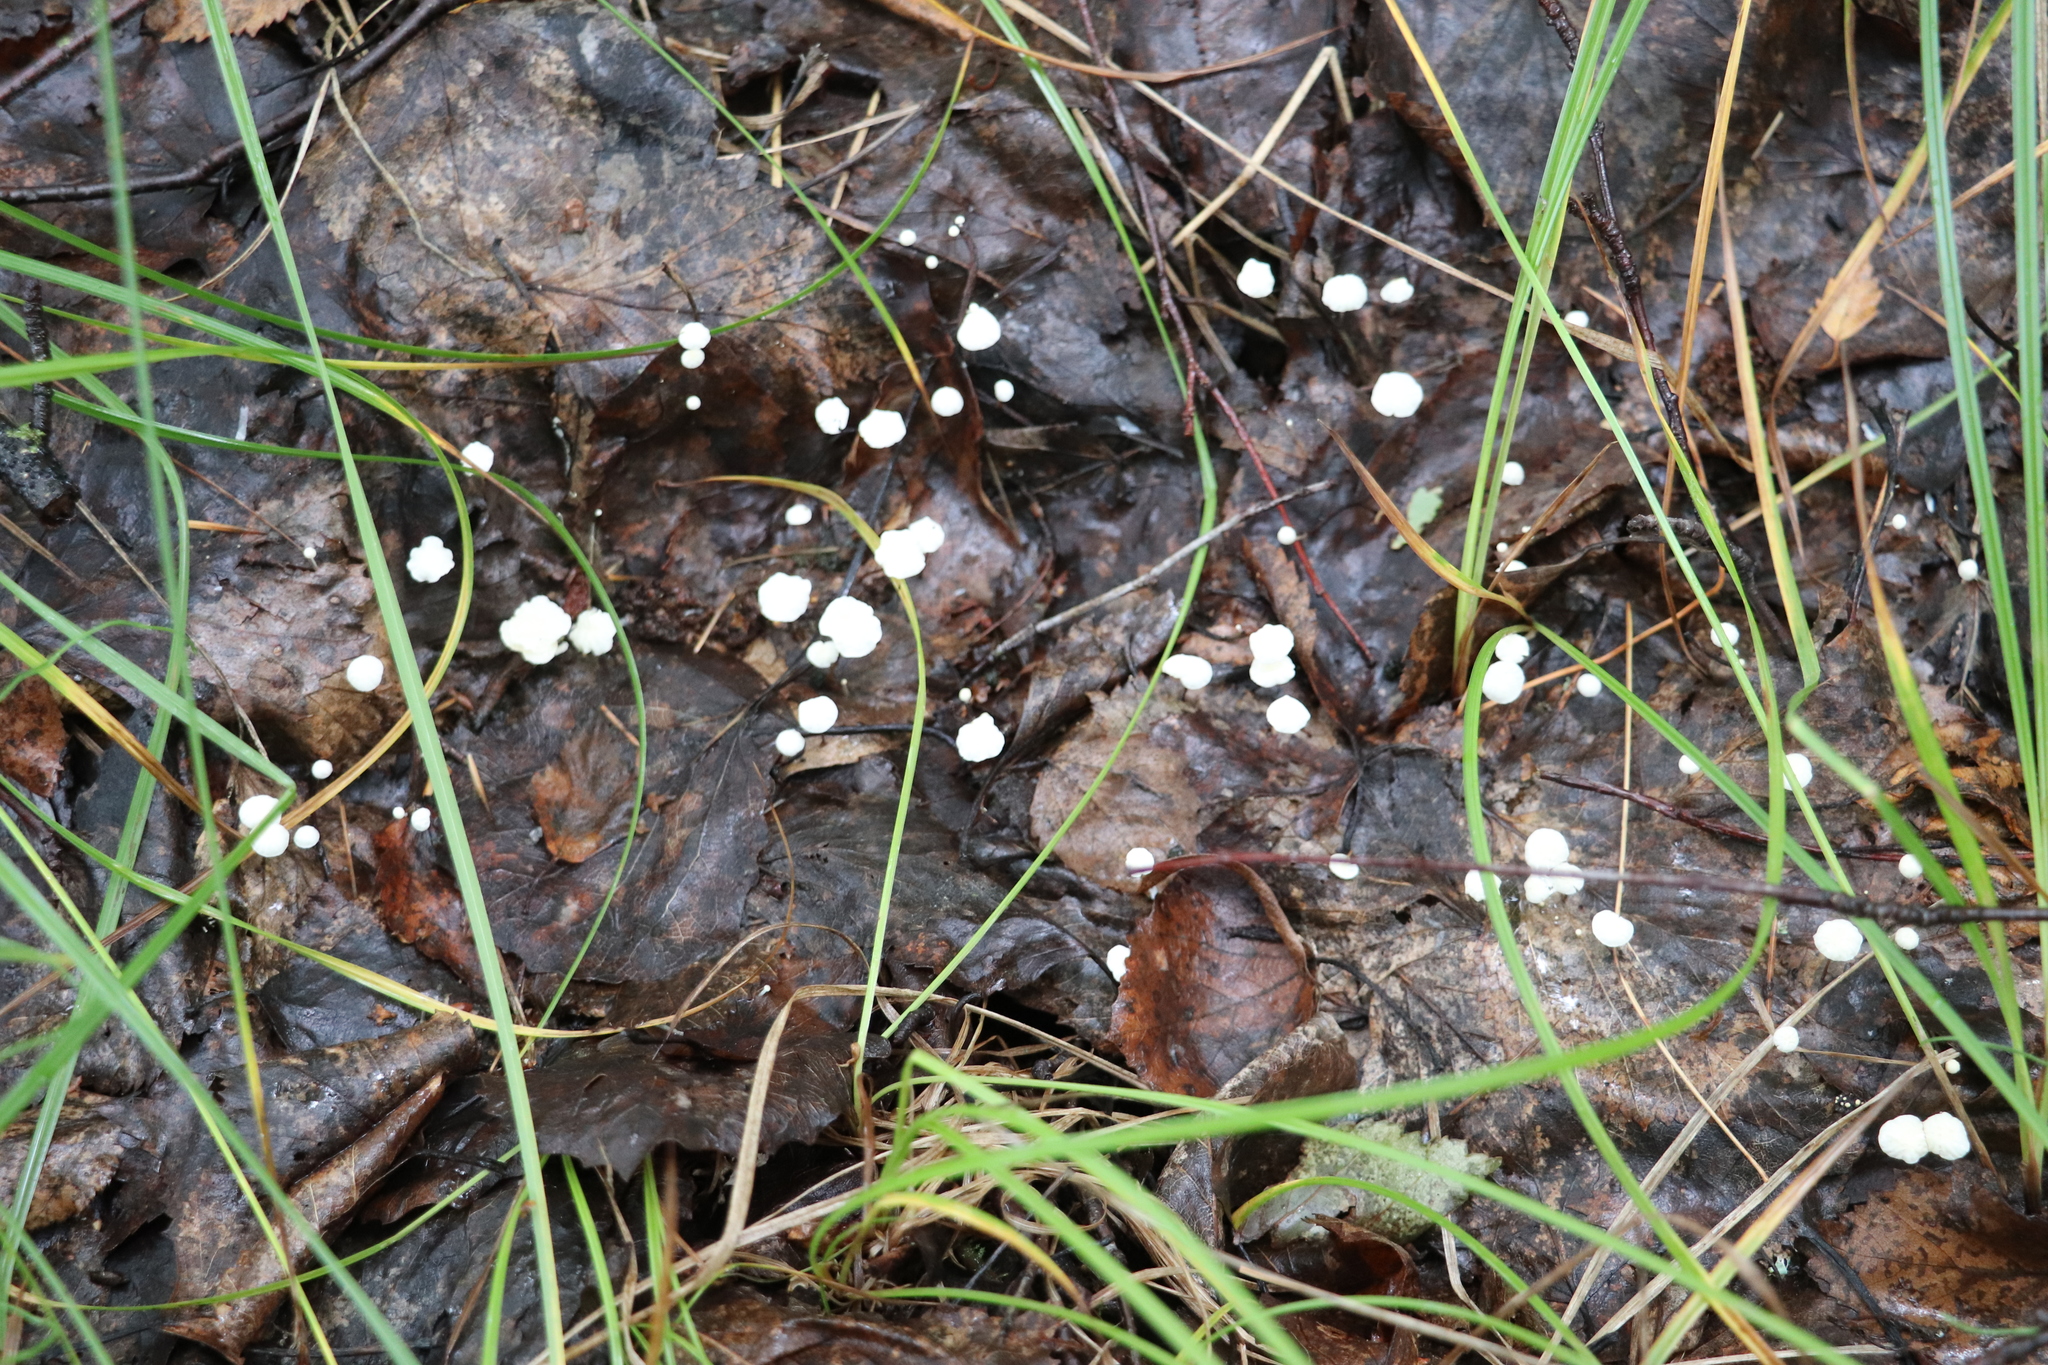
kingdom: Fungi
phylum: Basidiomycota
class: Agaricomycetes
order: Agaricales
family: Physalacriaceae
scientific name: Physalacriaceae
